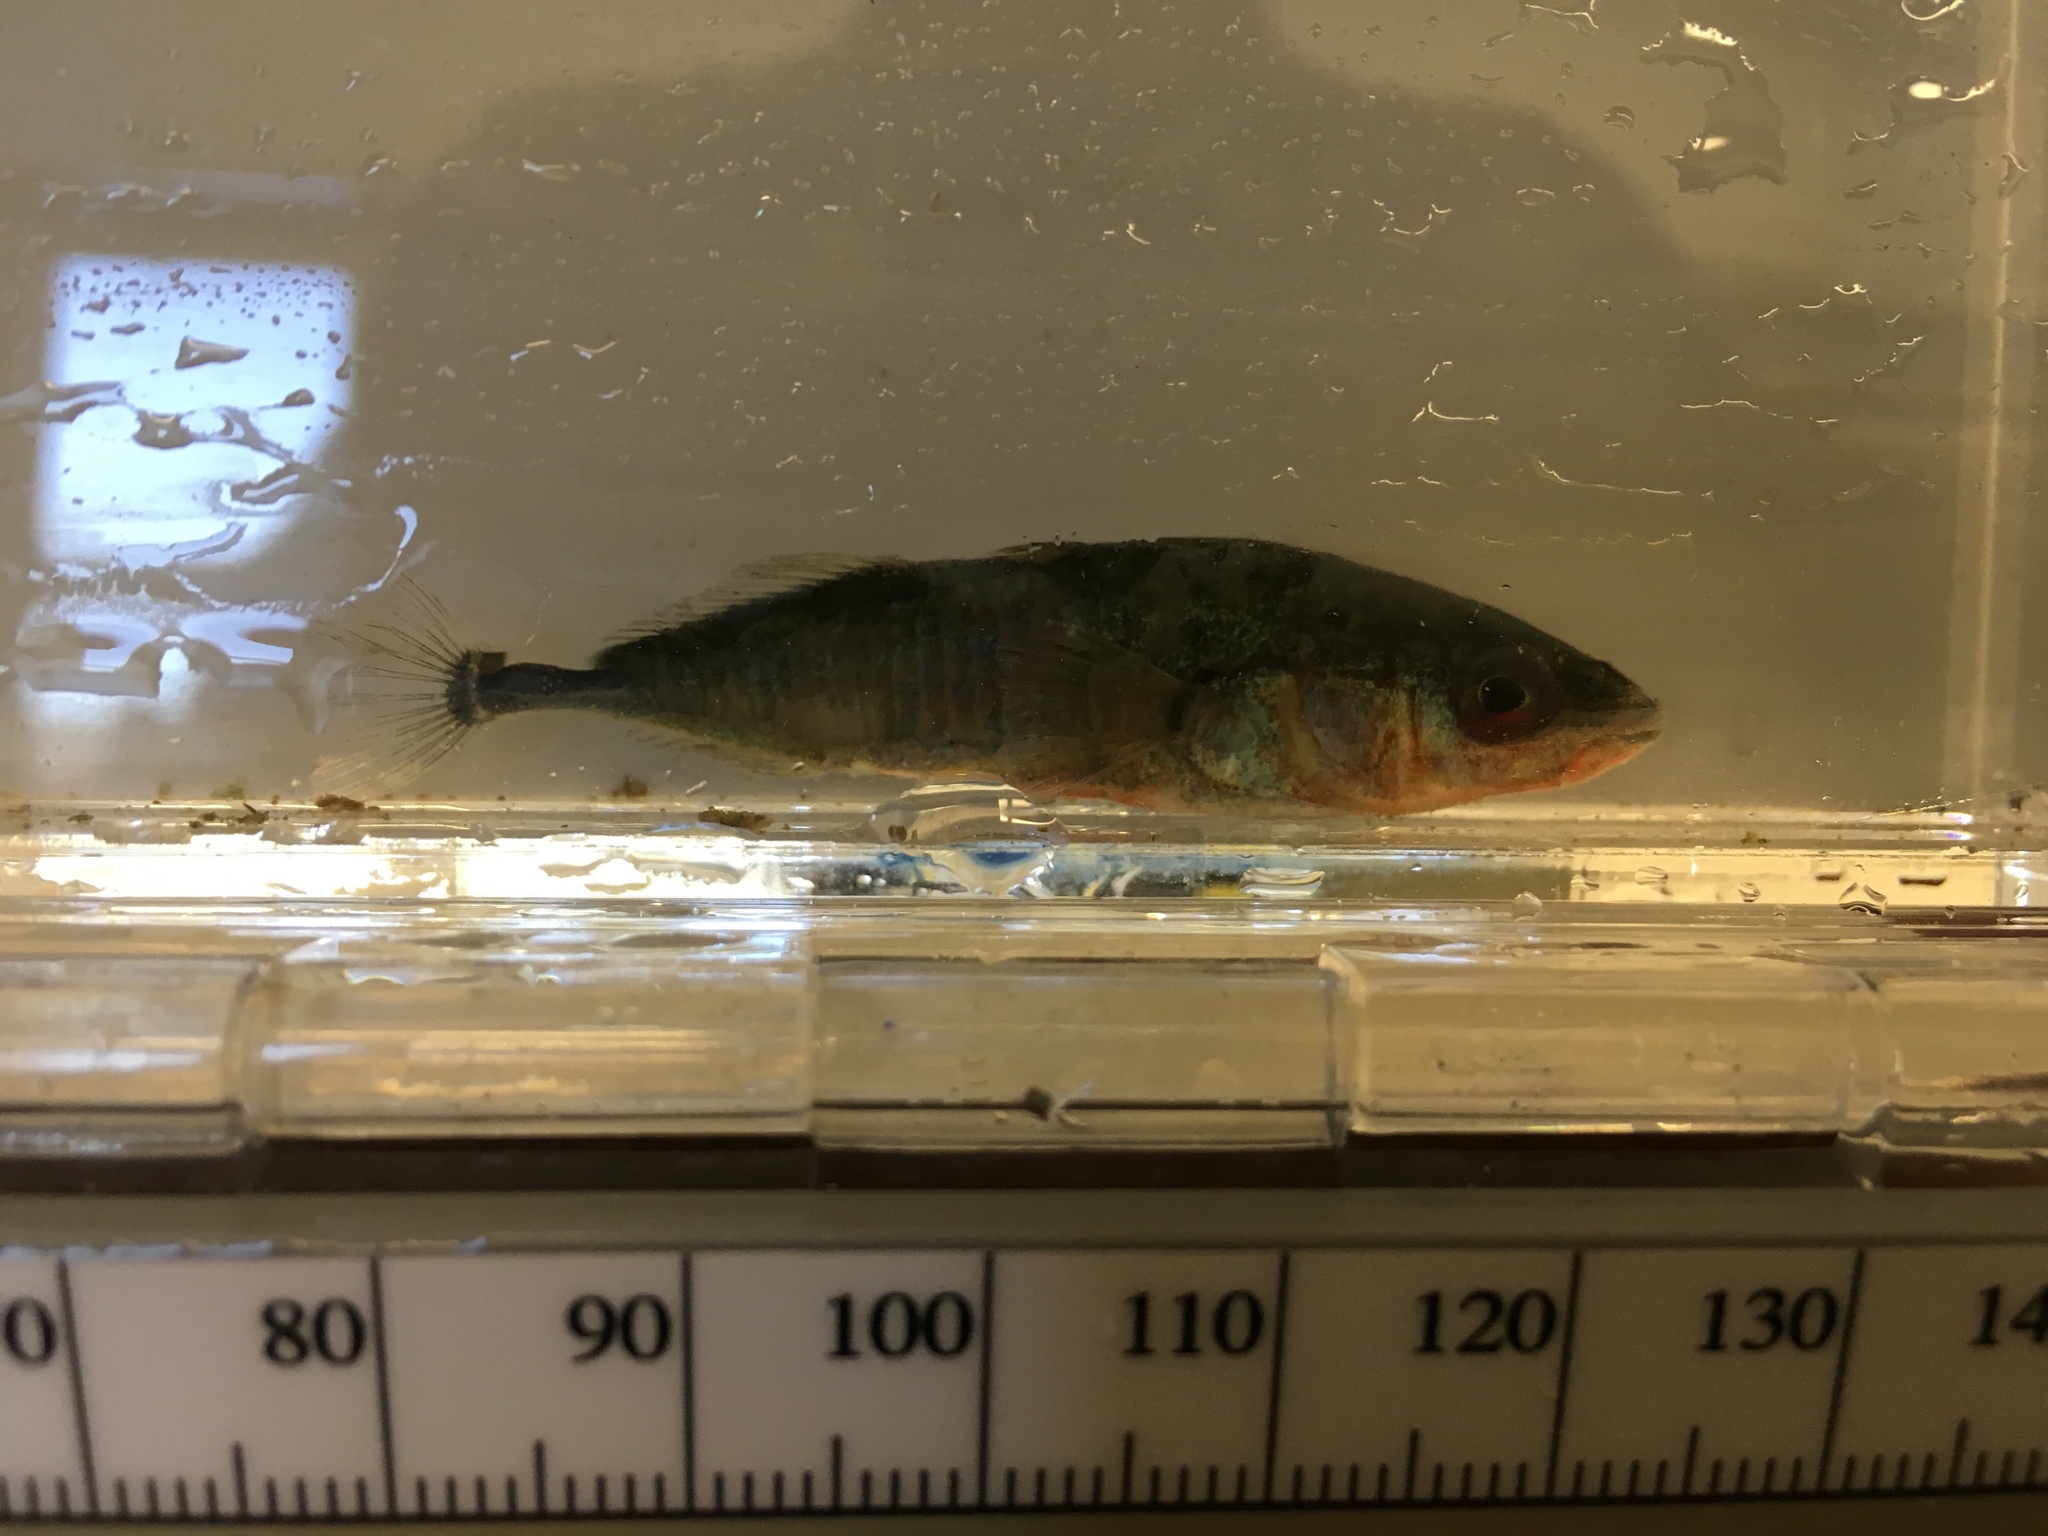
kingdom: Animalia
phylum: Chordata
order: Gasterosteiformes
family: Gasterosteidae
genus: Gasterosteus
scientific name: Gasterosteus aculeatus
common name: Three-spined stickleback
